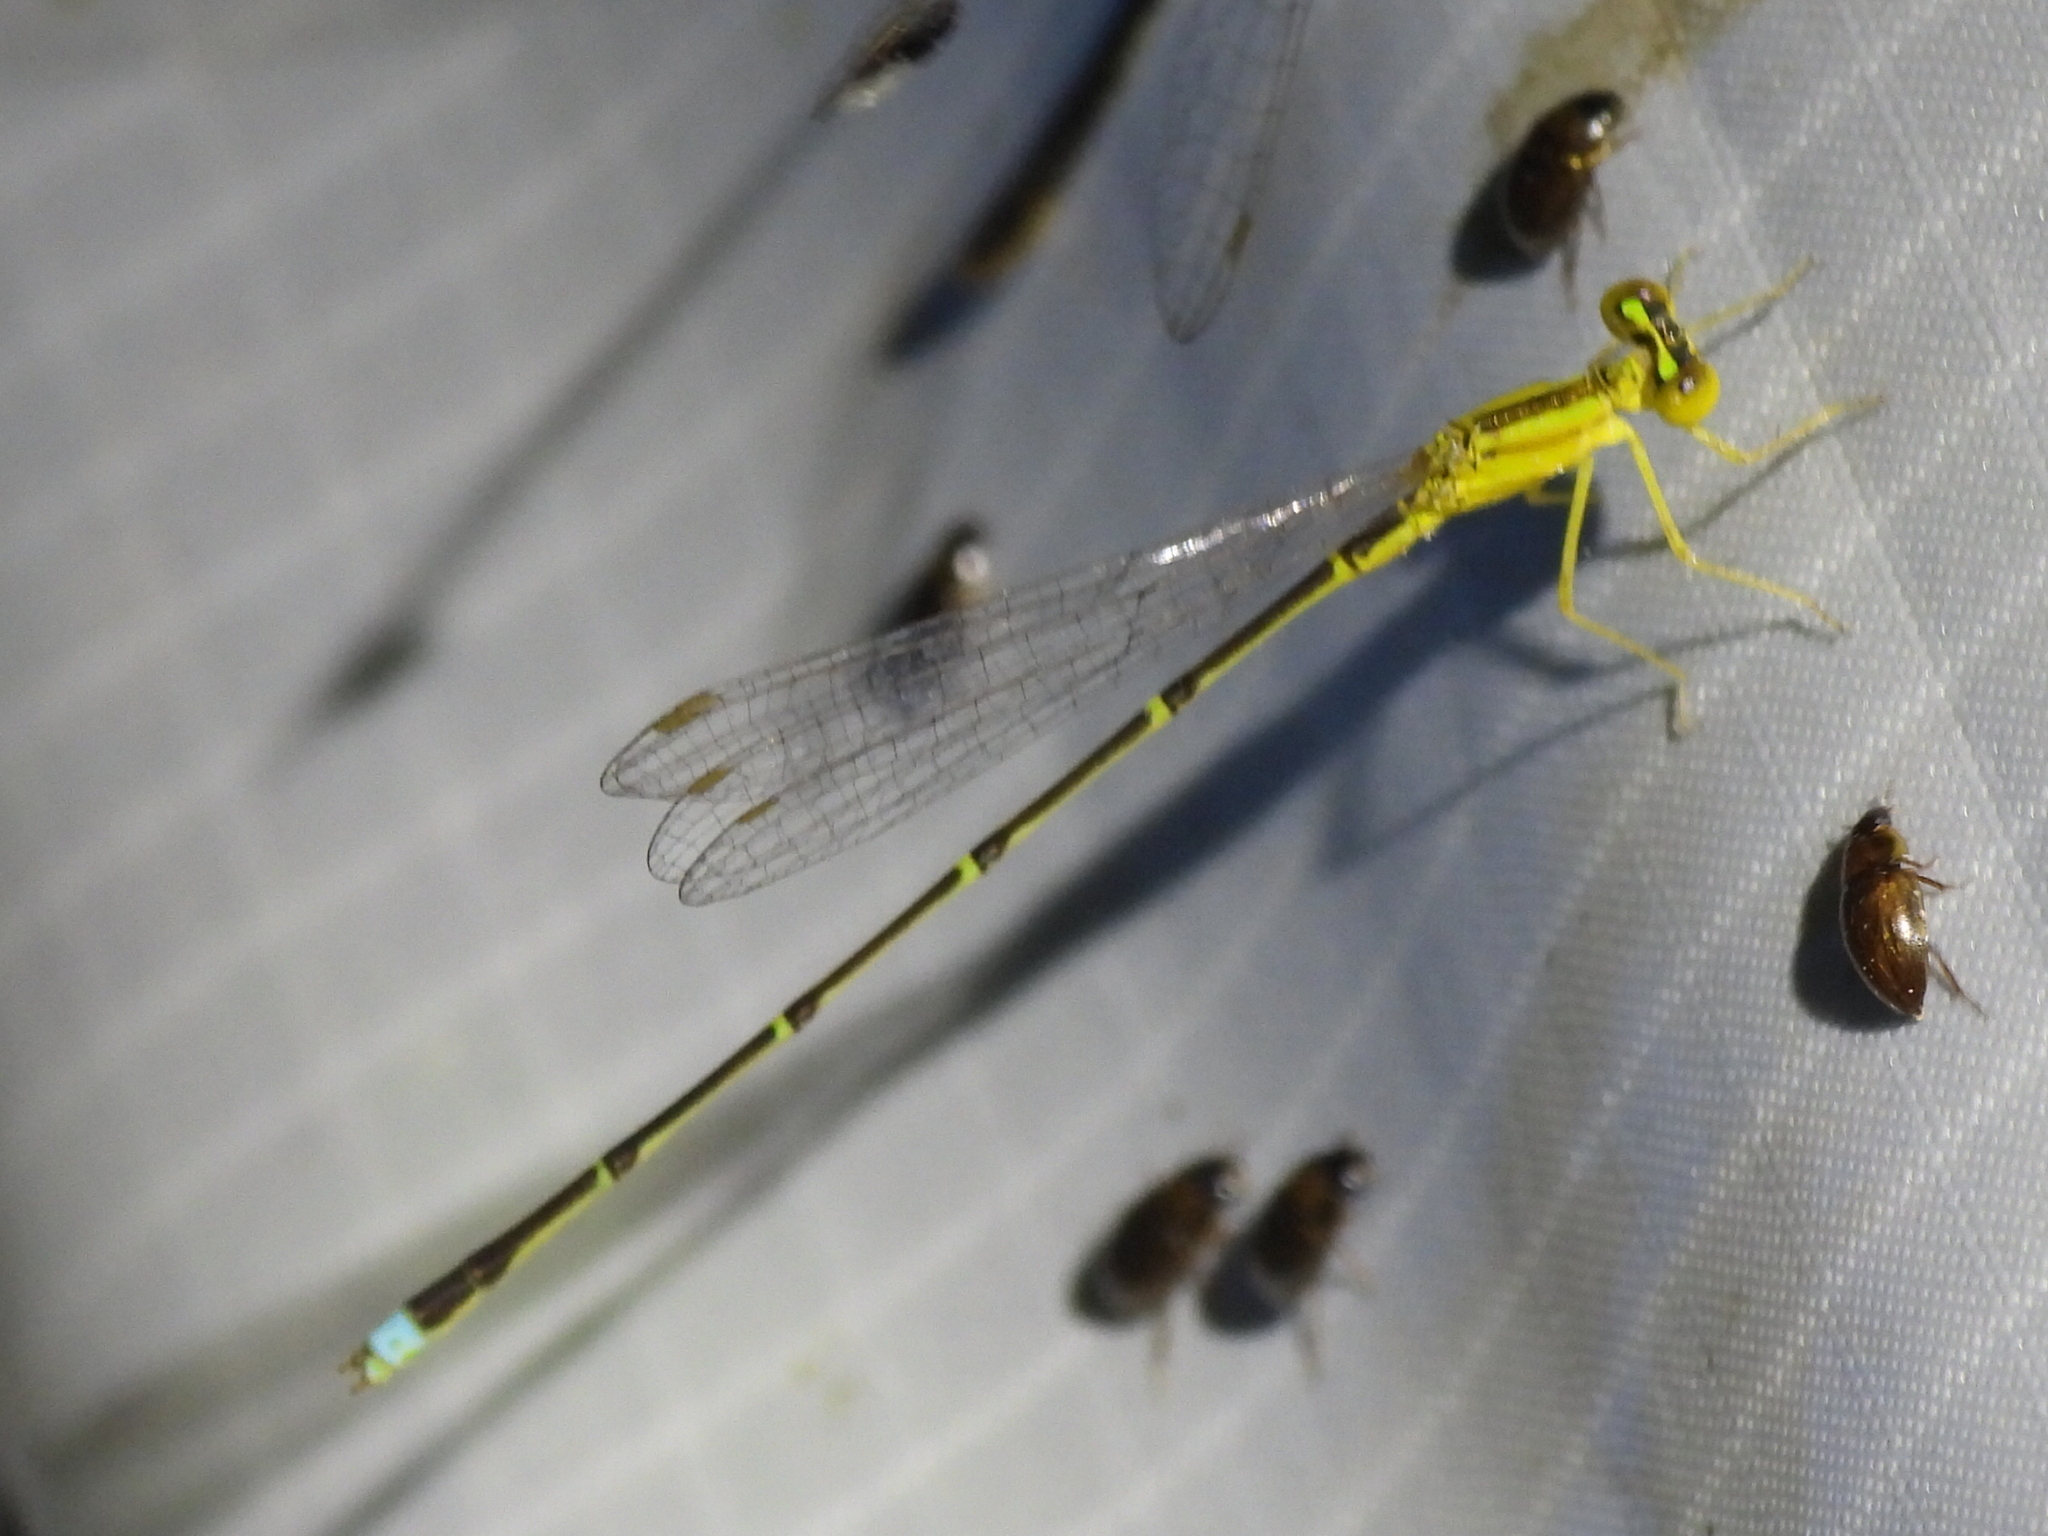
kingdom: Animalia
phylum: Arthropoda
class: Insecta
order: Odonata
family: Coenagrionidae
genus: Enallagma
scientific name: Enallagma vesperum
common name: Vesper bluet
